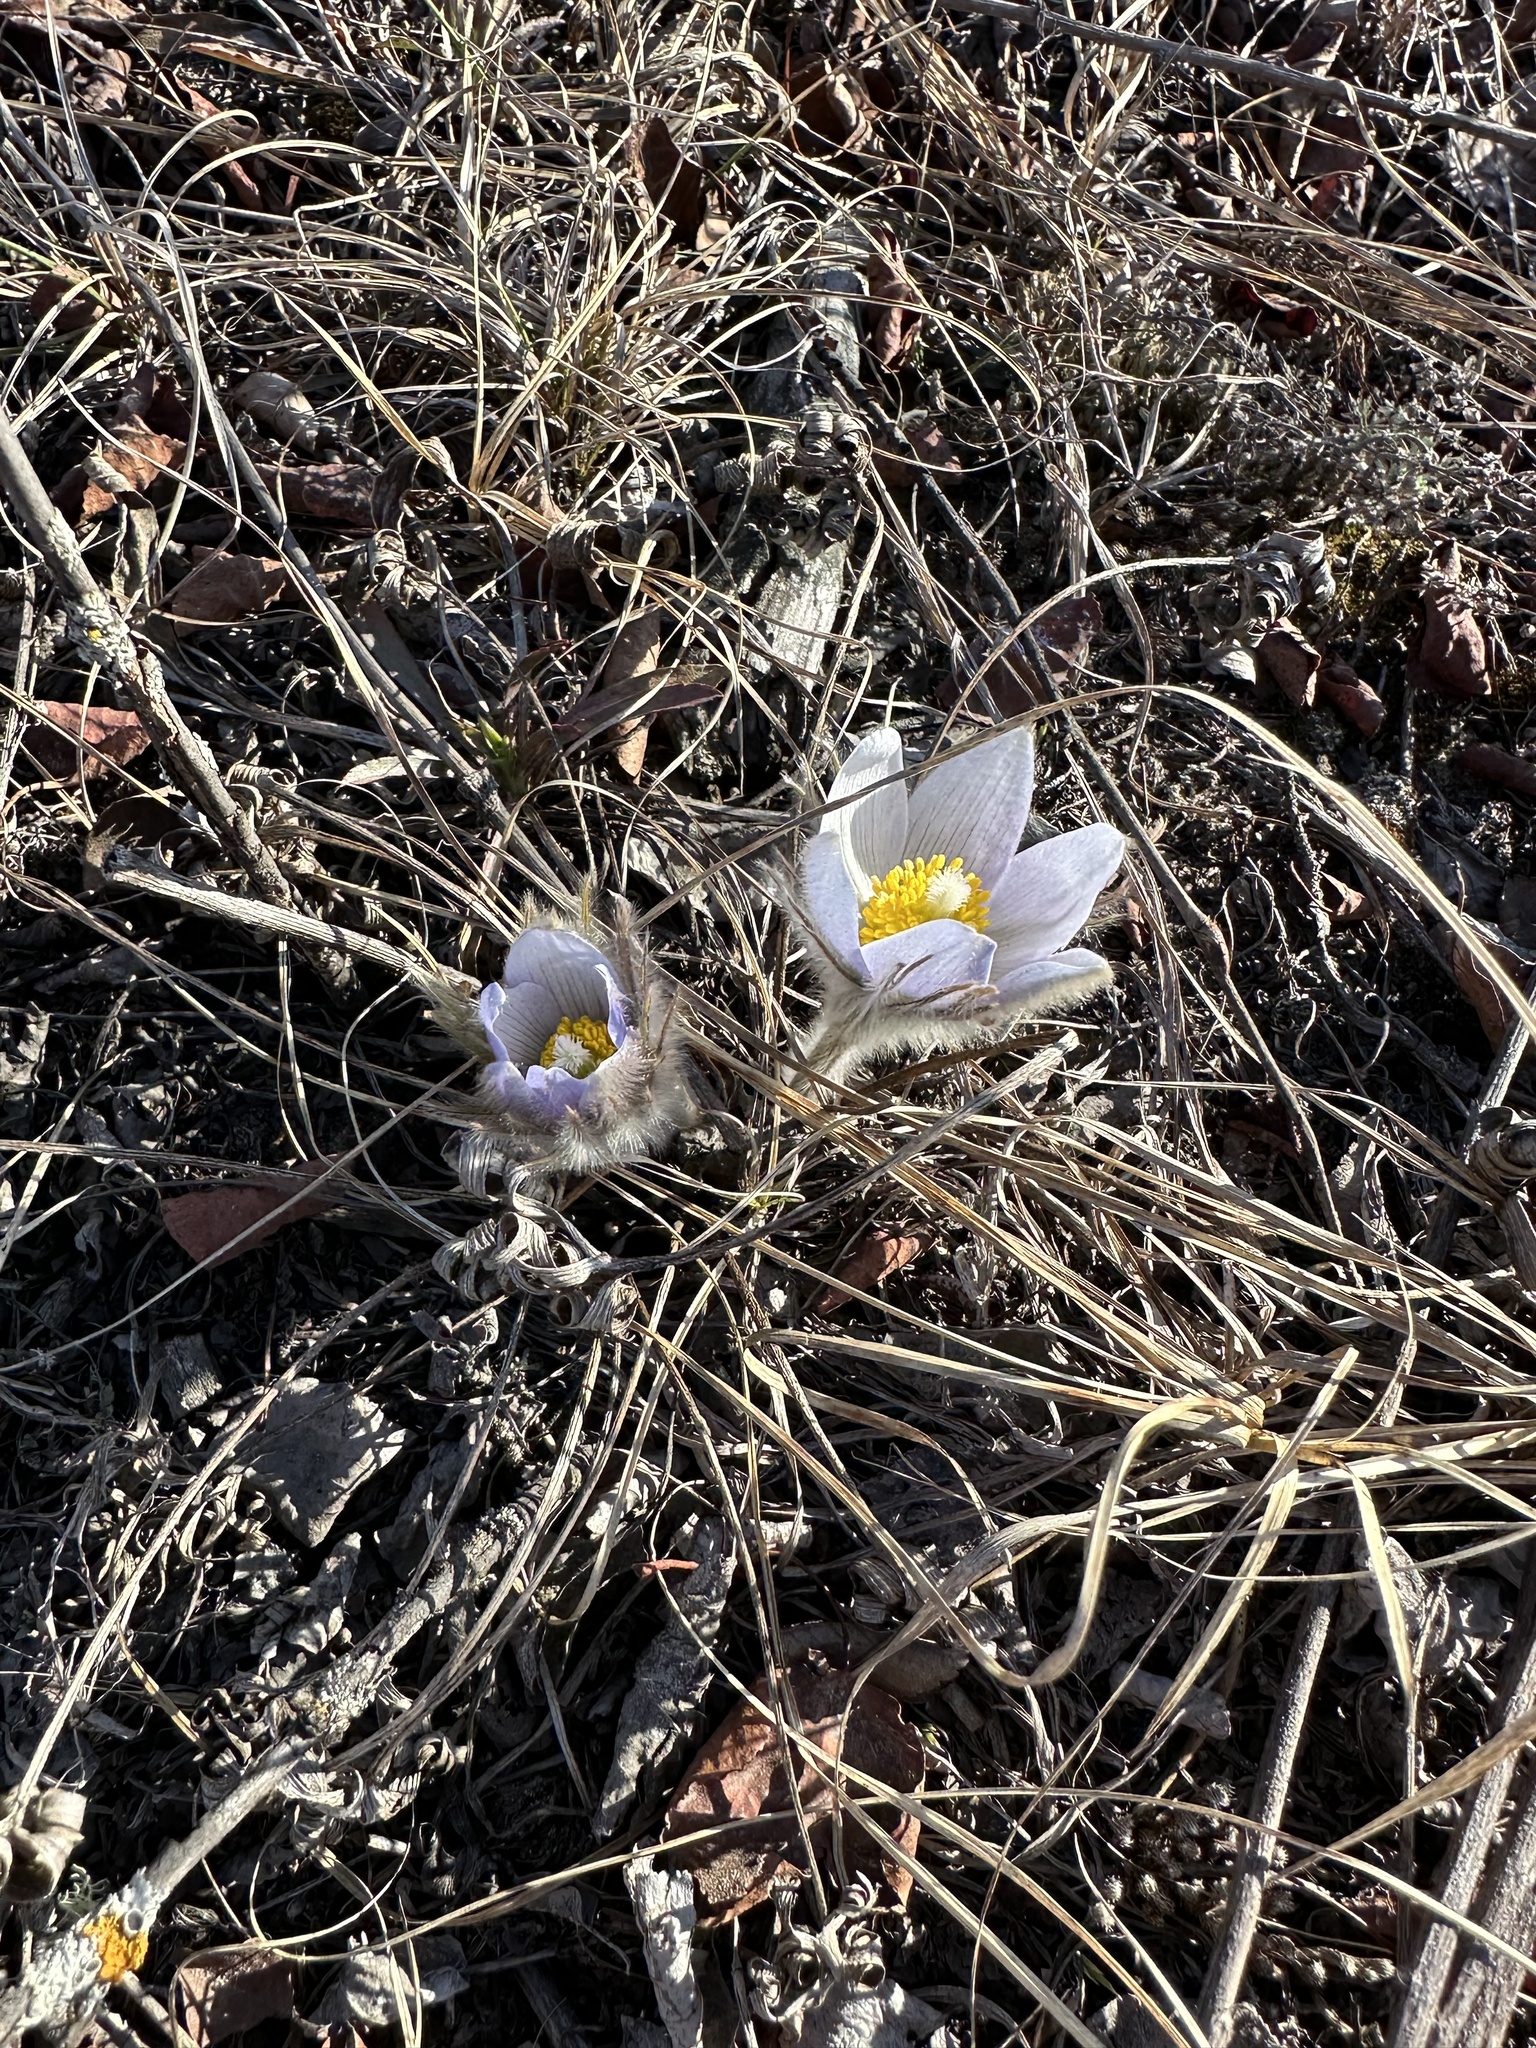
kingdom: Plantae
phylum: Tracheophyta
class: Magnoliopsida
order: Ranunculales
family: Ranunculaceae
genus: Pulsatilla
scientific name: Pulsatilla nuttalliana
